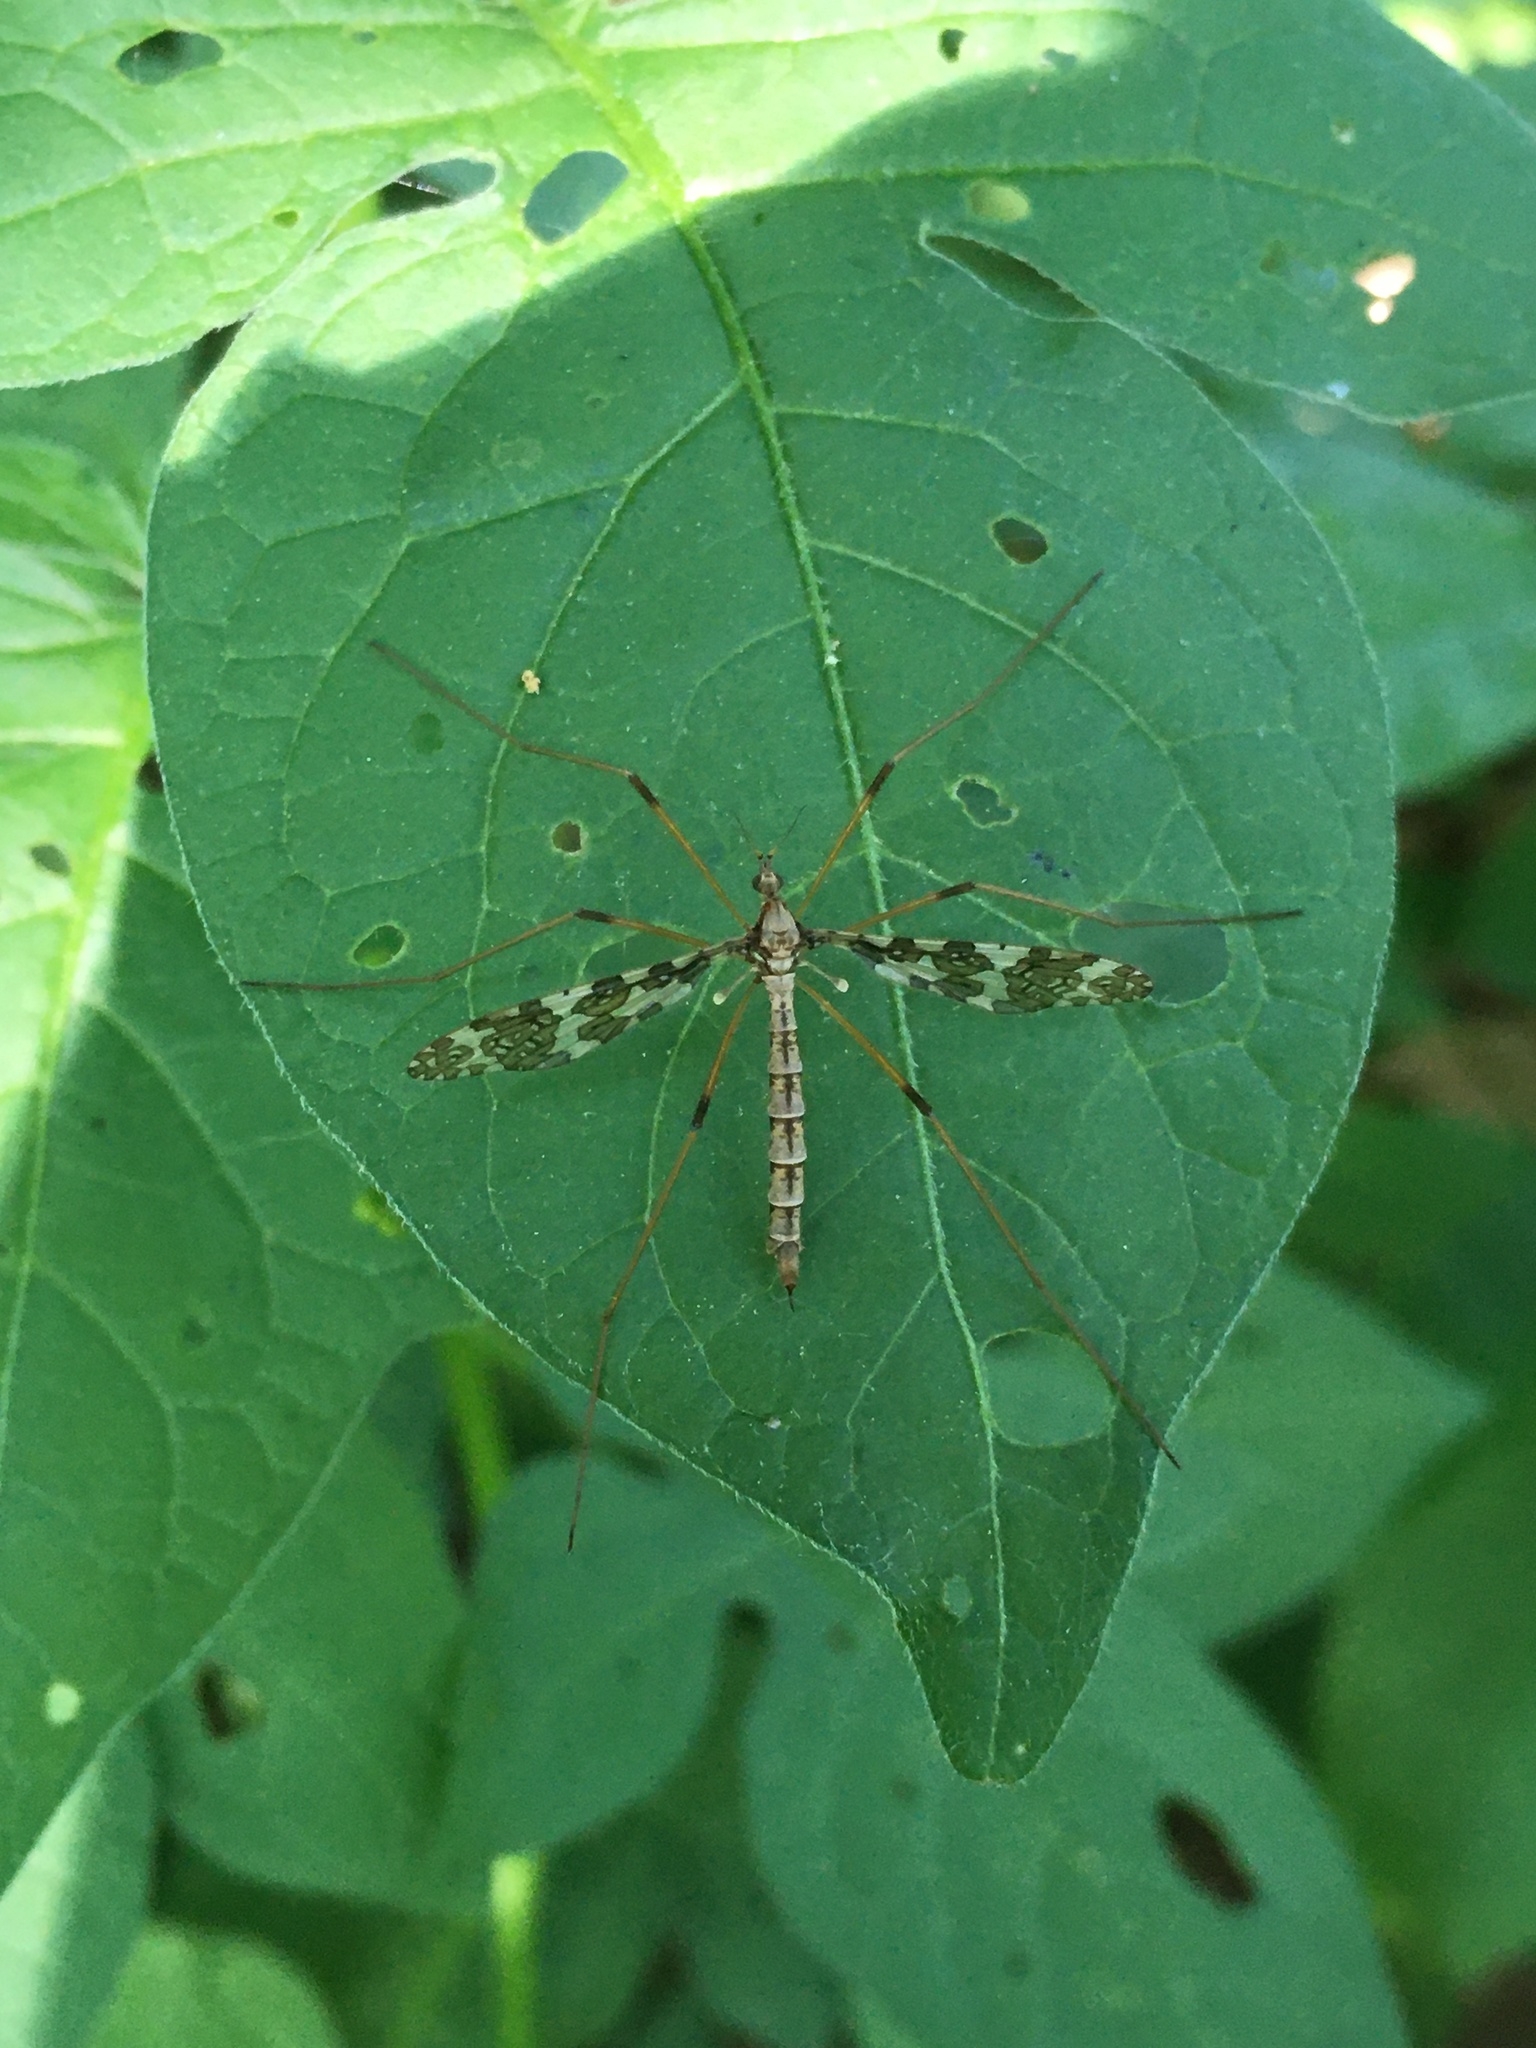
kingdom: Animalia
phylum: Arthropoda
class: Insecta
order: Diptera
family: Limoniidae
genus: Epiphragma
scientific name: Epiphragma fasciapenne
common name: Band-winged crane fly
